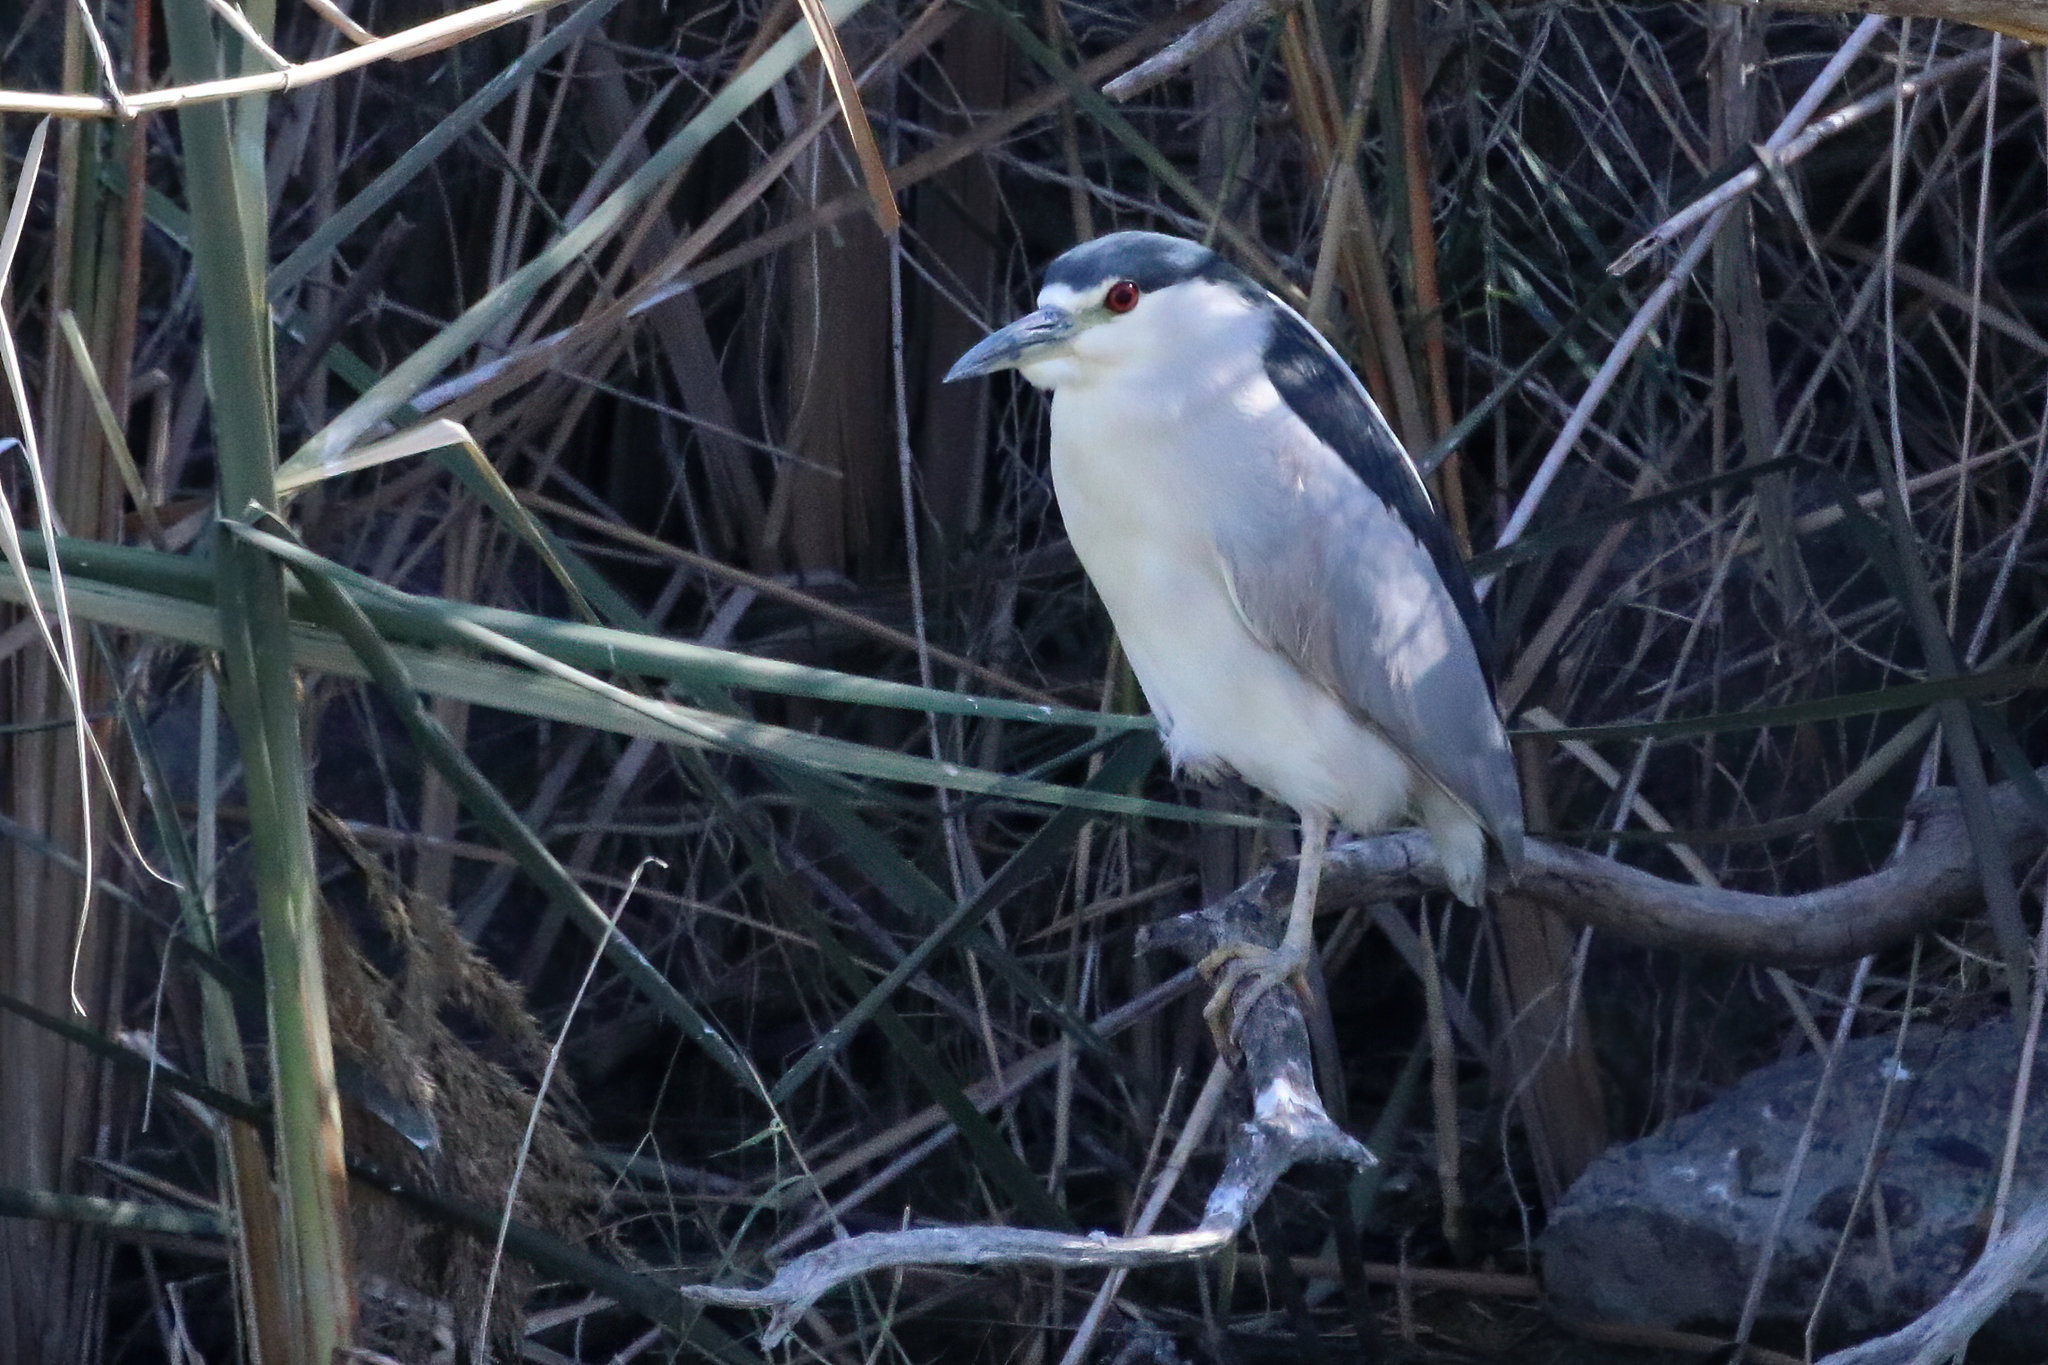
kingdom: Animalia
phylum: Chordata
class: Aves
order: Pelecaniformes
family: Ardeidae
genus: Nycticorax
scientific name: Nycticorax nycticorax
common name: Black-crowned night heron
